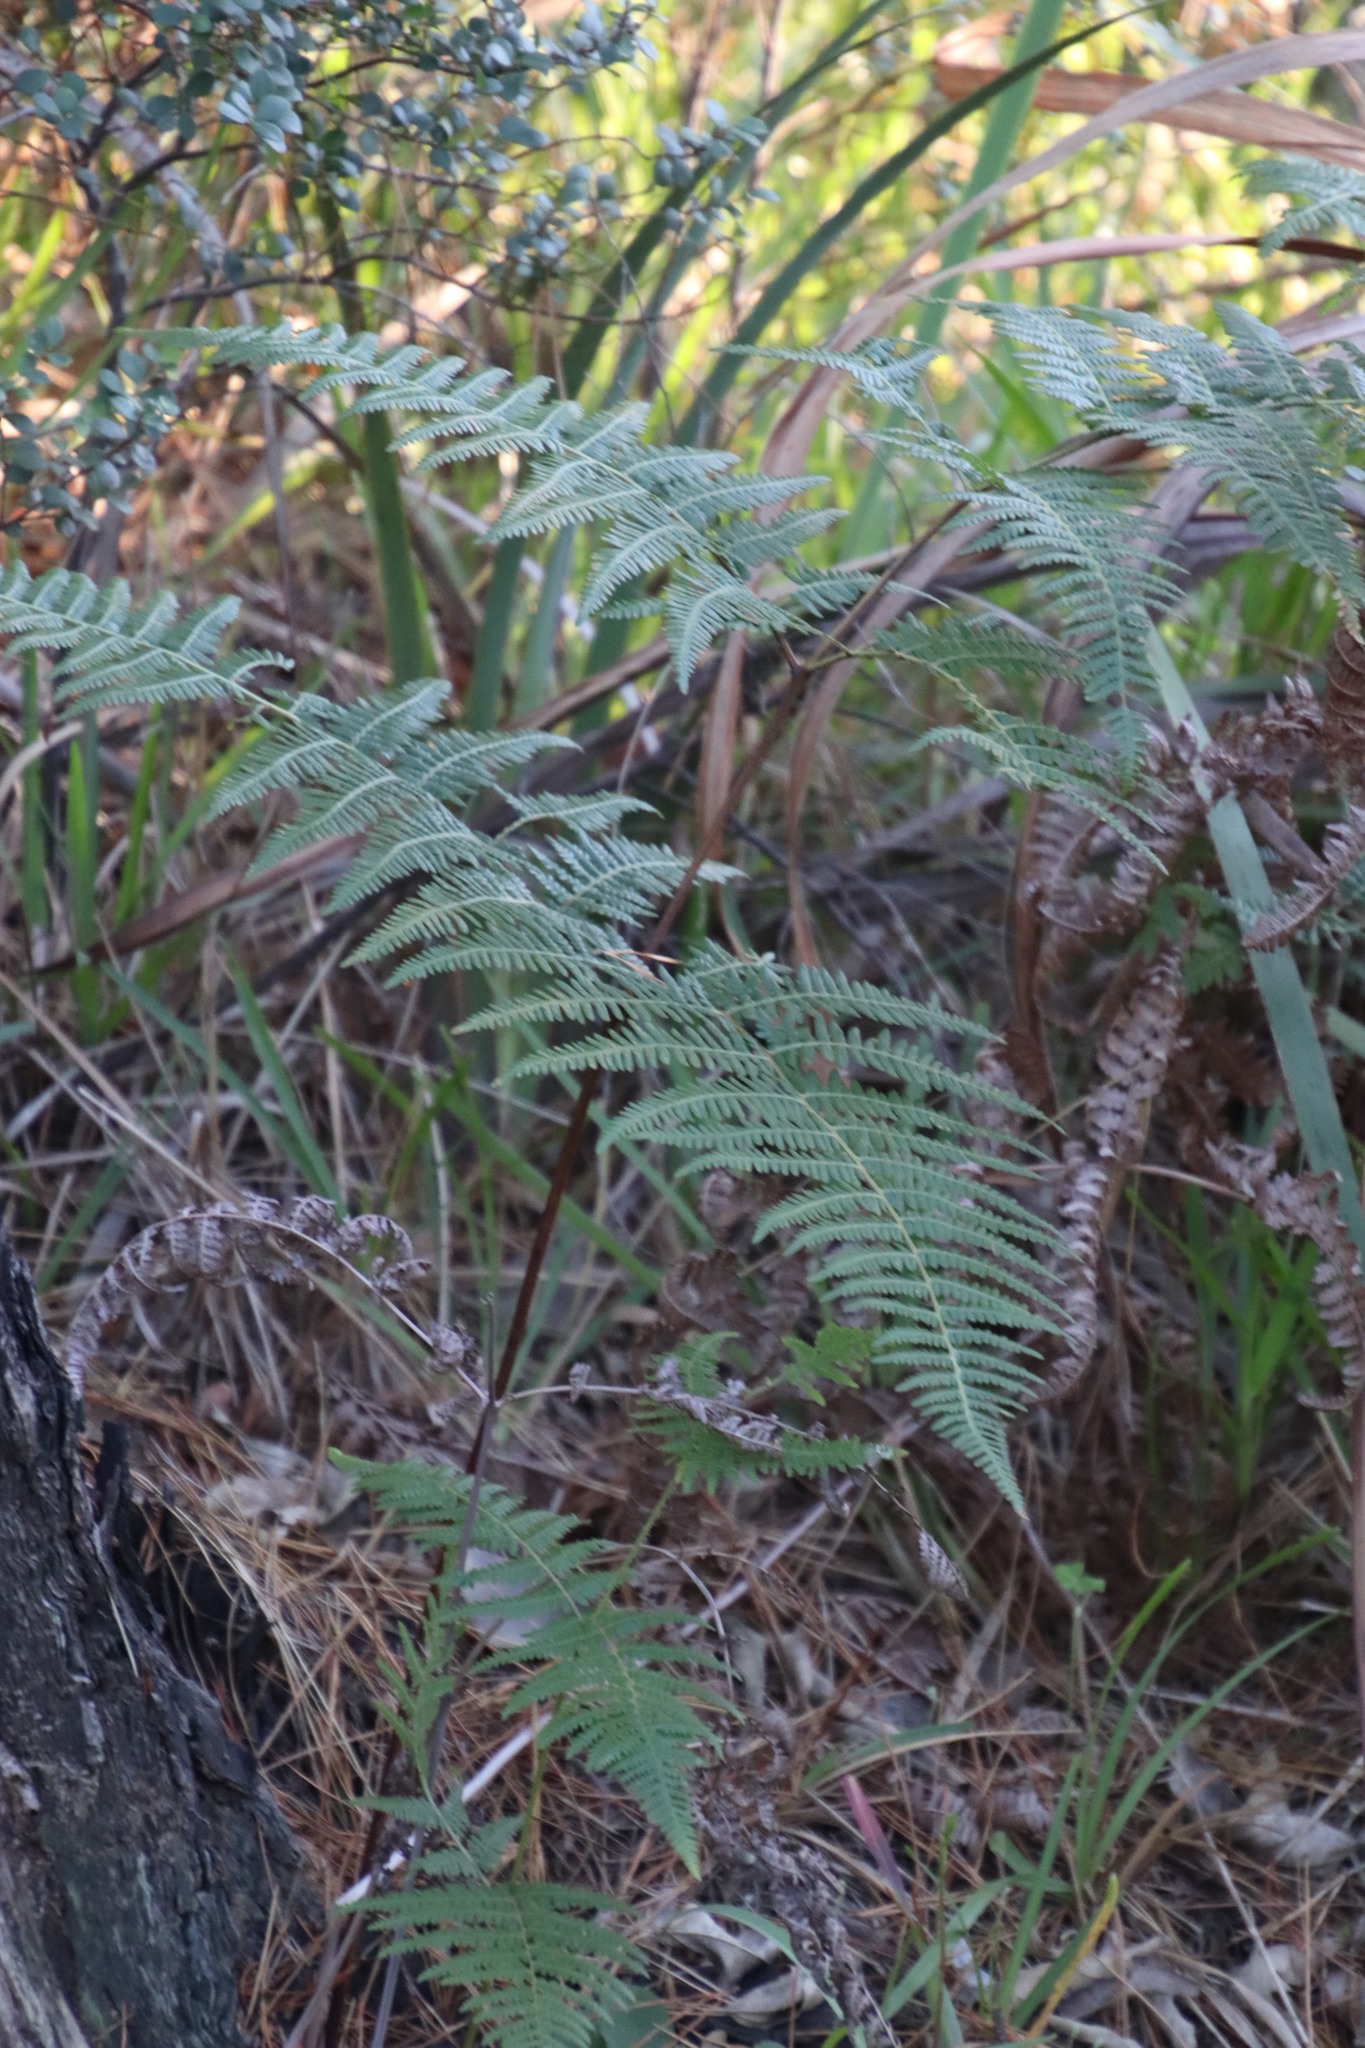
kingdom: Plantae
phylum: Tracheophyta
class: Polypodiopsida
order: Polypodiales
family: Dennstaedtiaceae
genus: Pteridium
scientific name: Pteridium aquilinum
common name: Bracken
